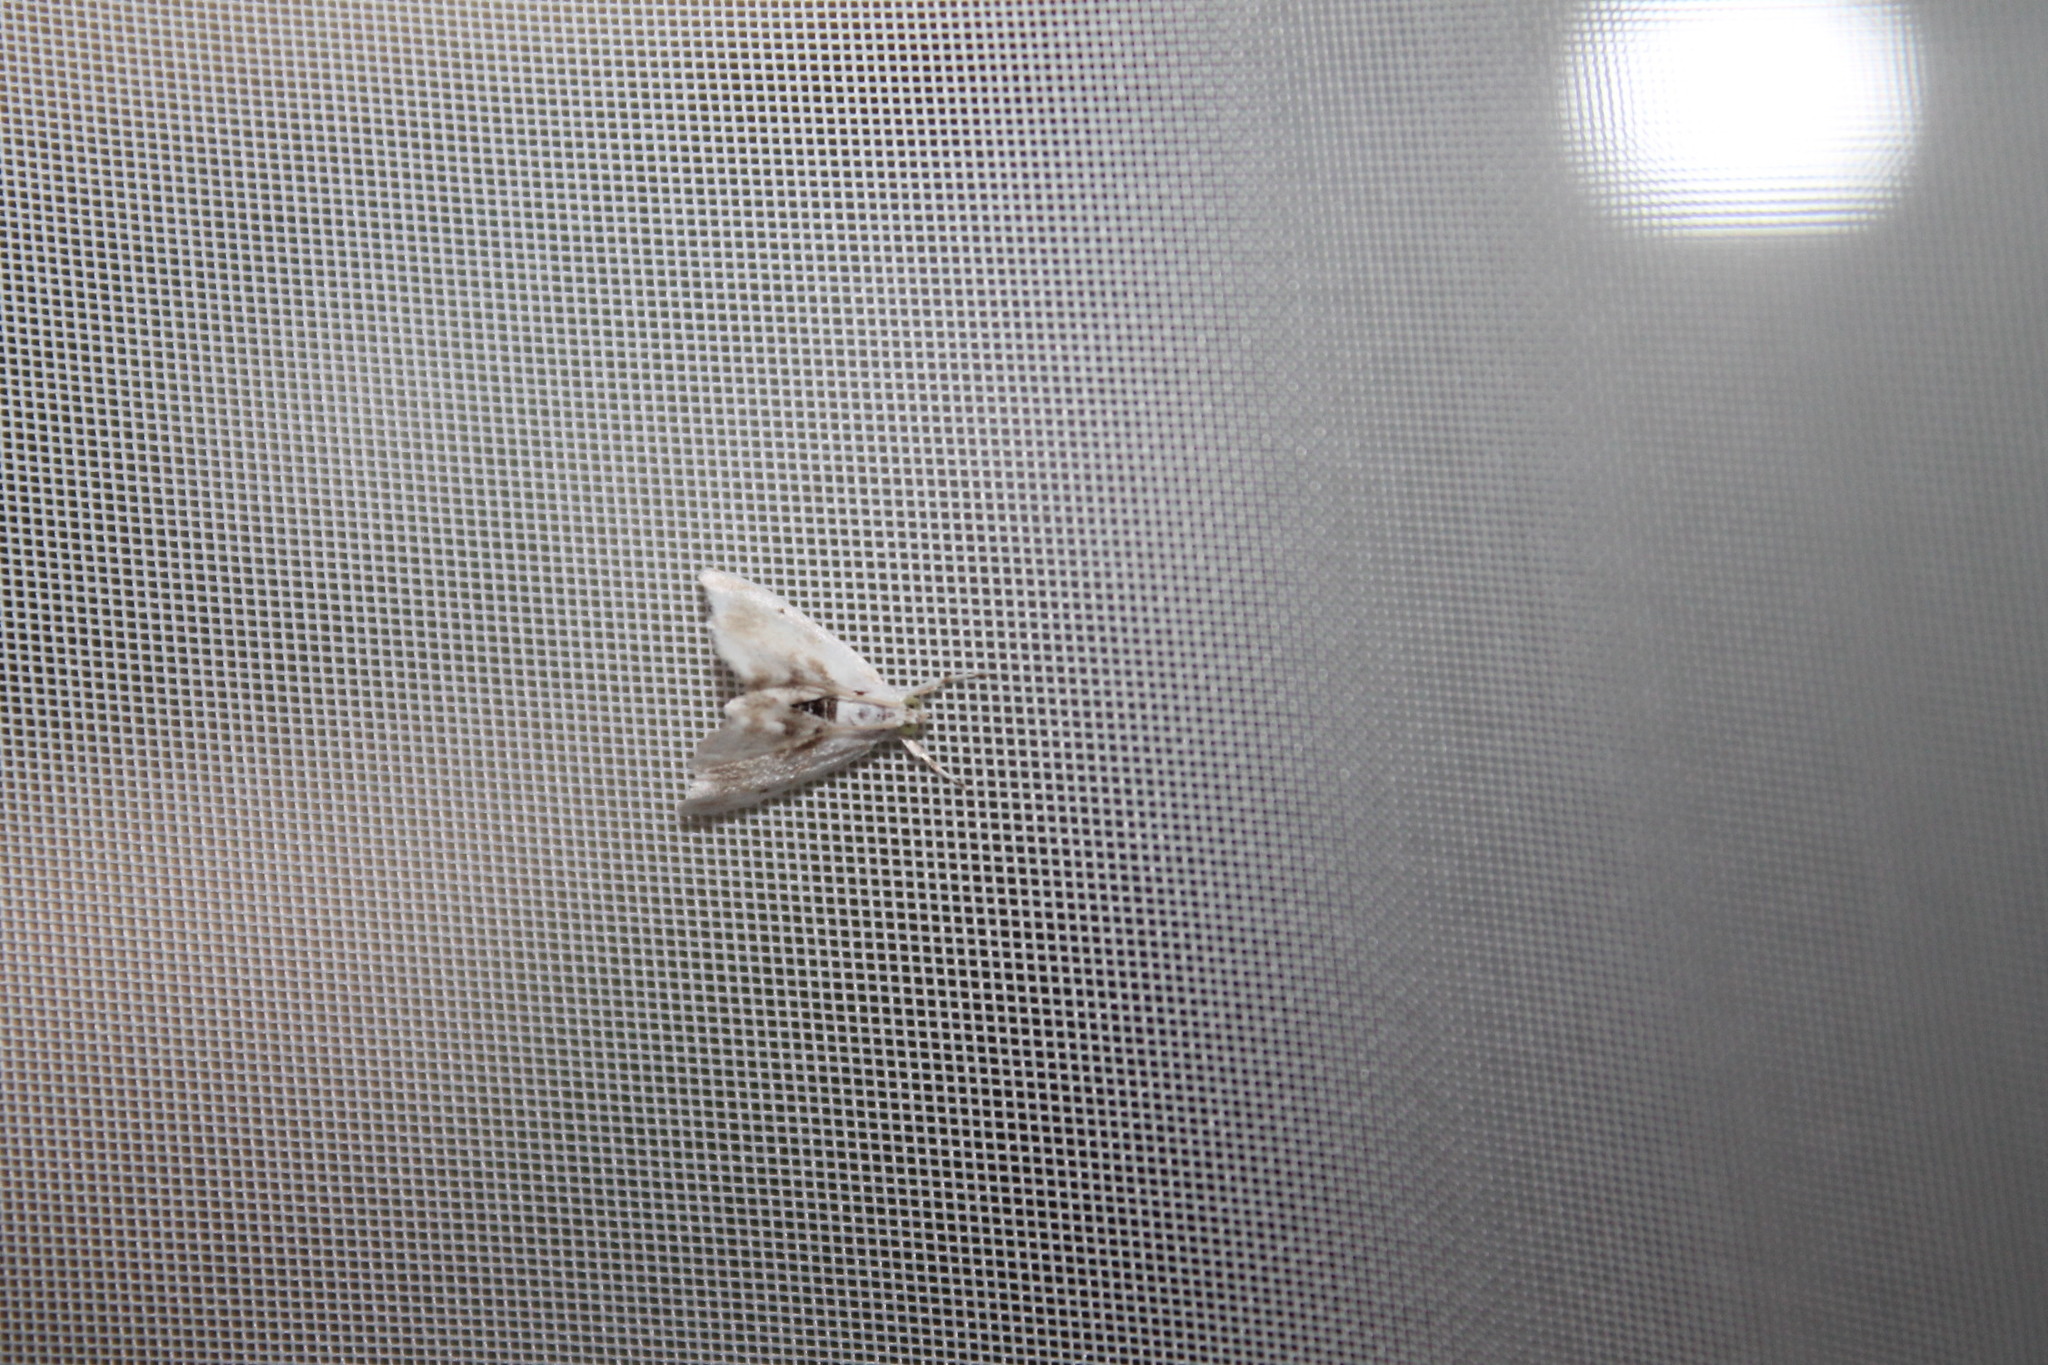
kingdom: Animalia
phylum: Arthropoda
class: Insecta
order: Lepidoptera
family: Crambidae
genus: Lipocosma
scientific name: Lipocosma sicalis
